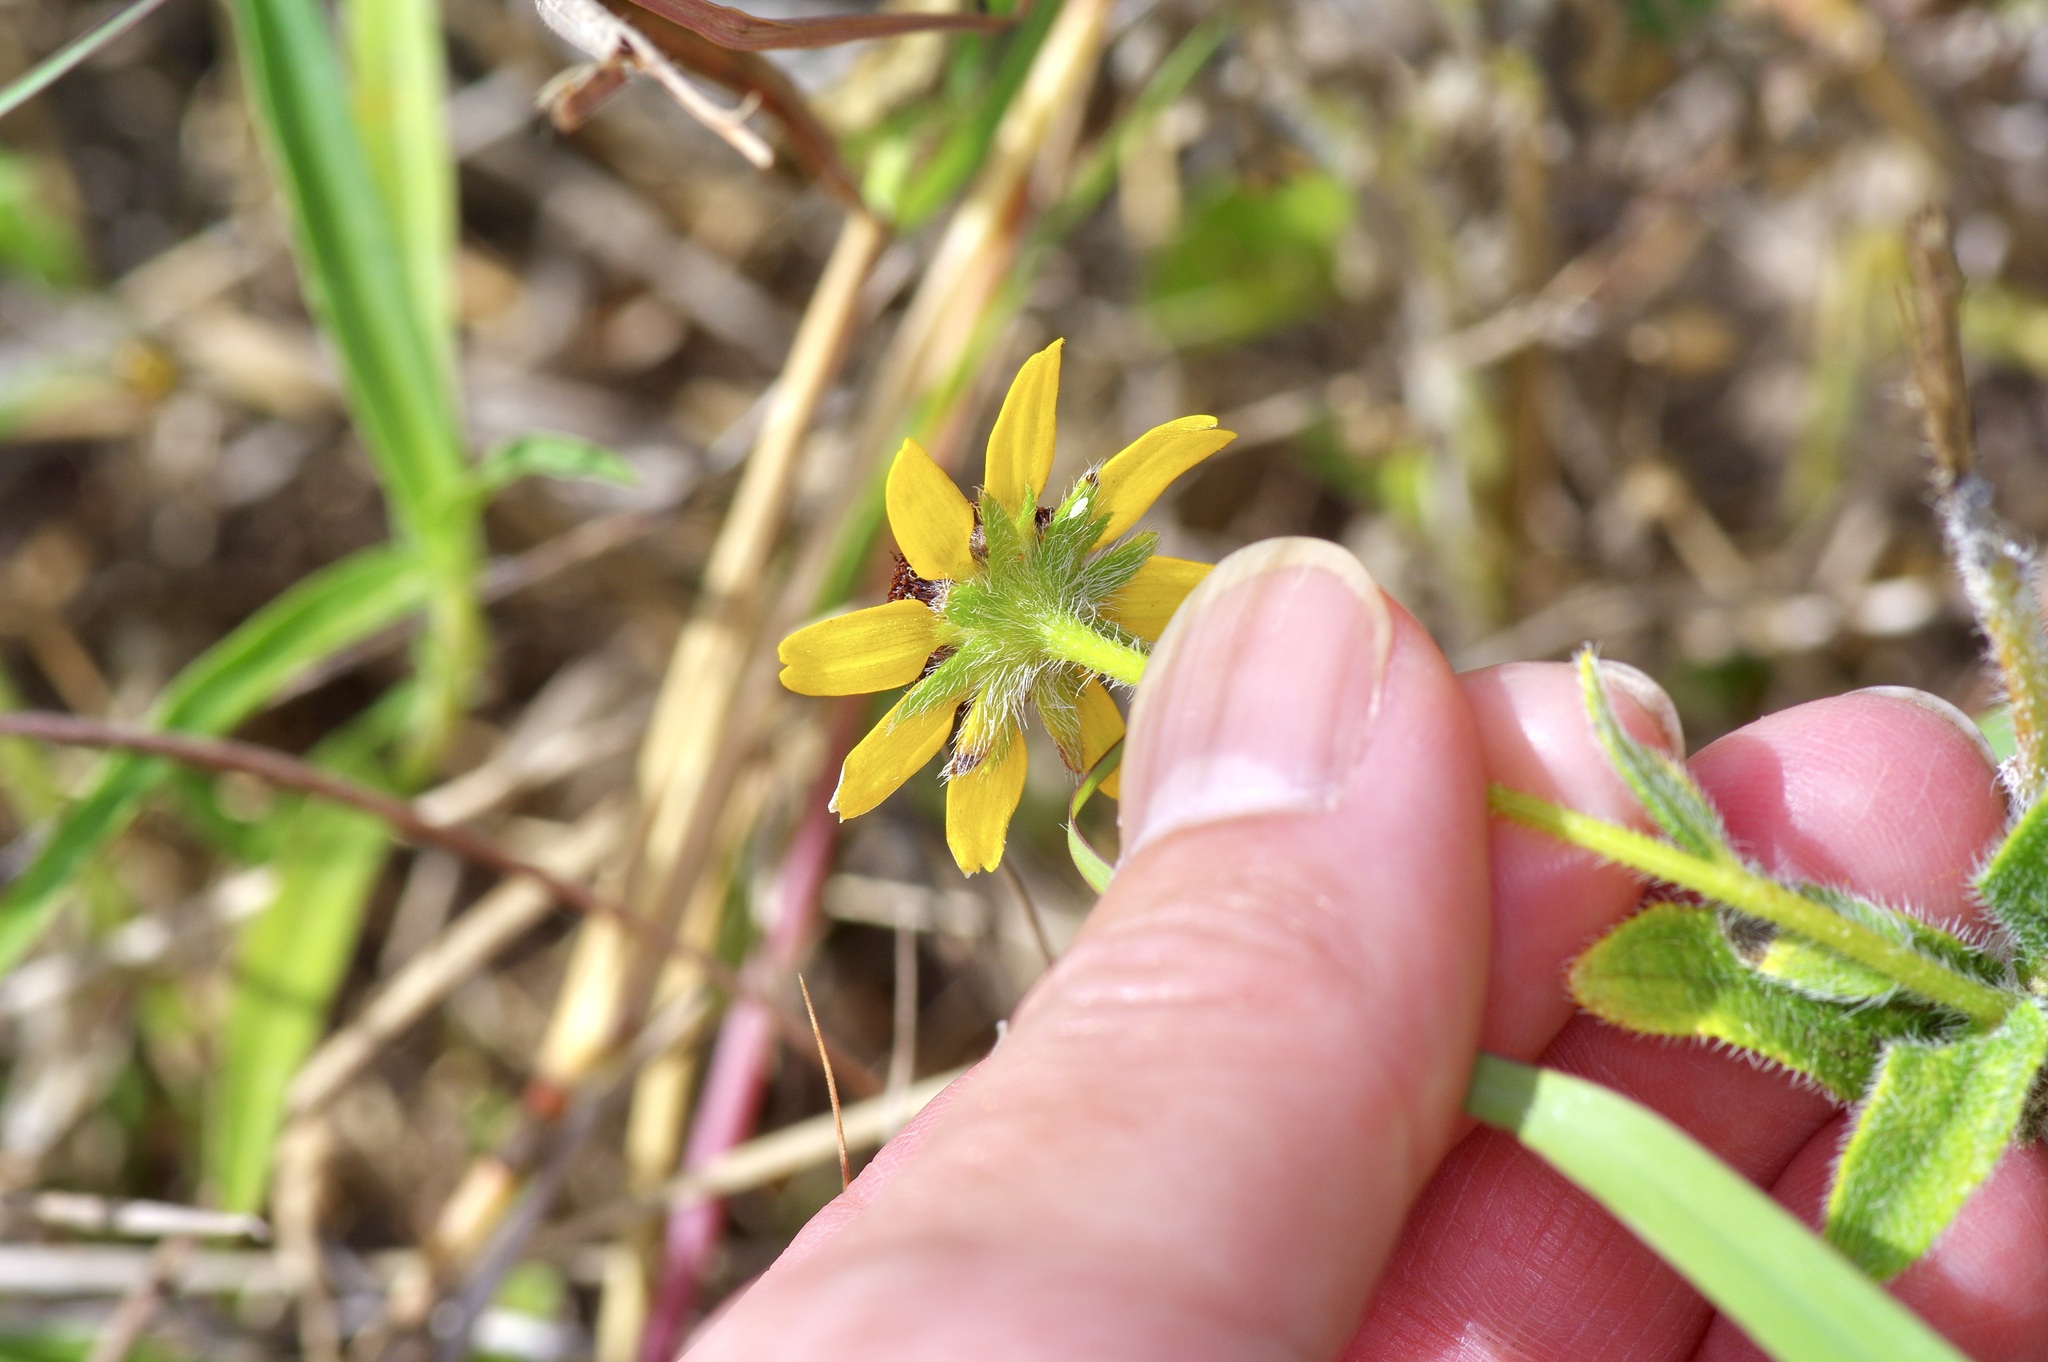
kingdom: Plantae
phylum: Tracheophyta
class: Magnoliopsida
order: Asterales
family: Asteraceae
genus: Rudbeckia
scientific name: Rudbeckia hirta
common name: Black-eyed-susan
